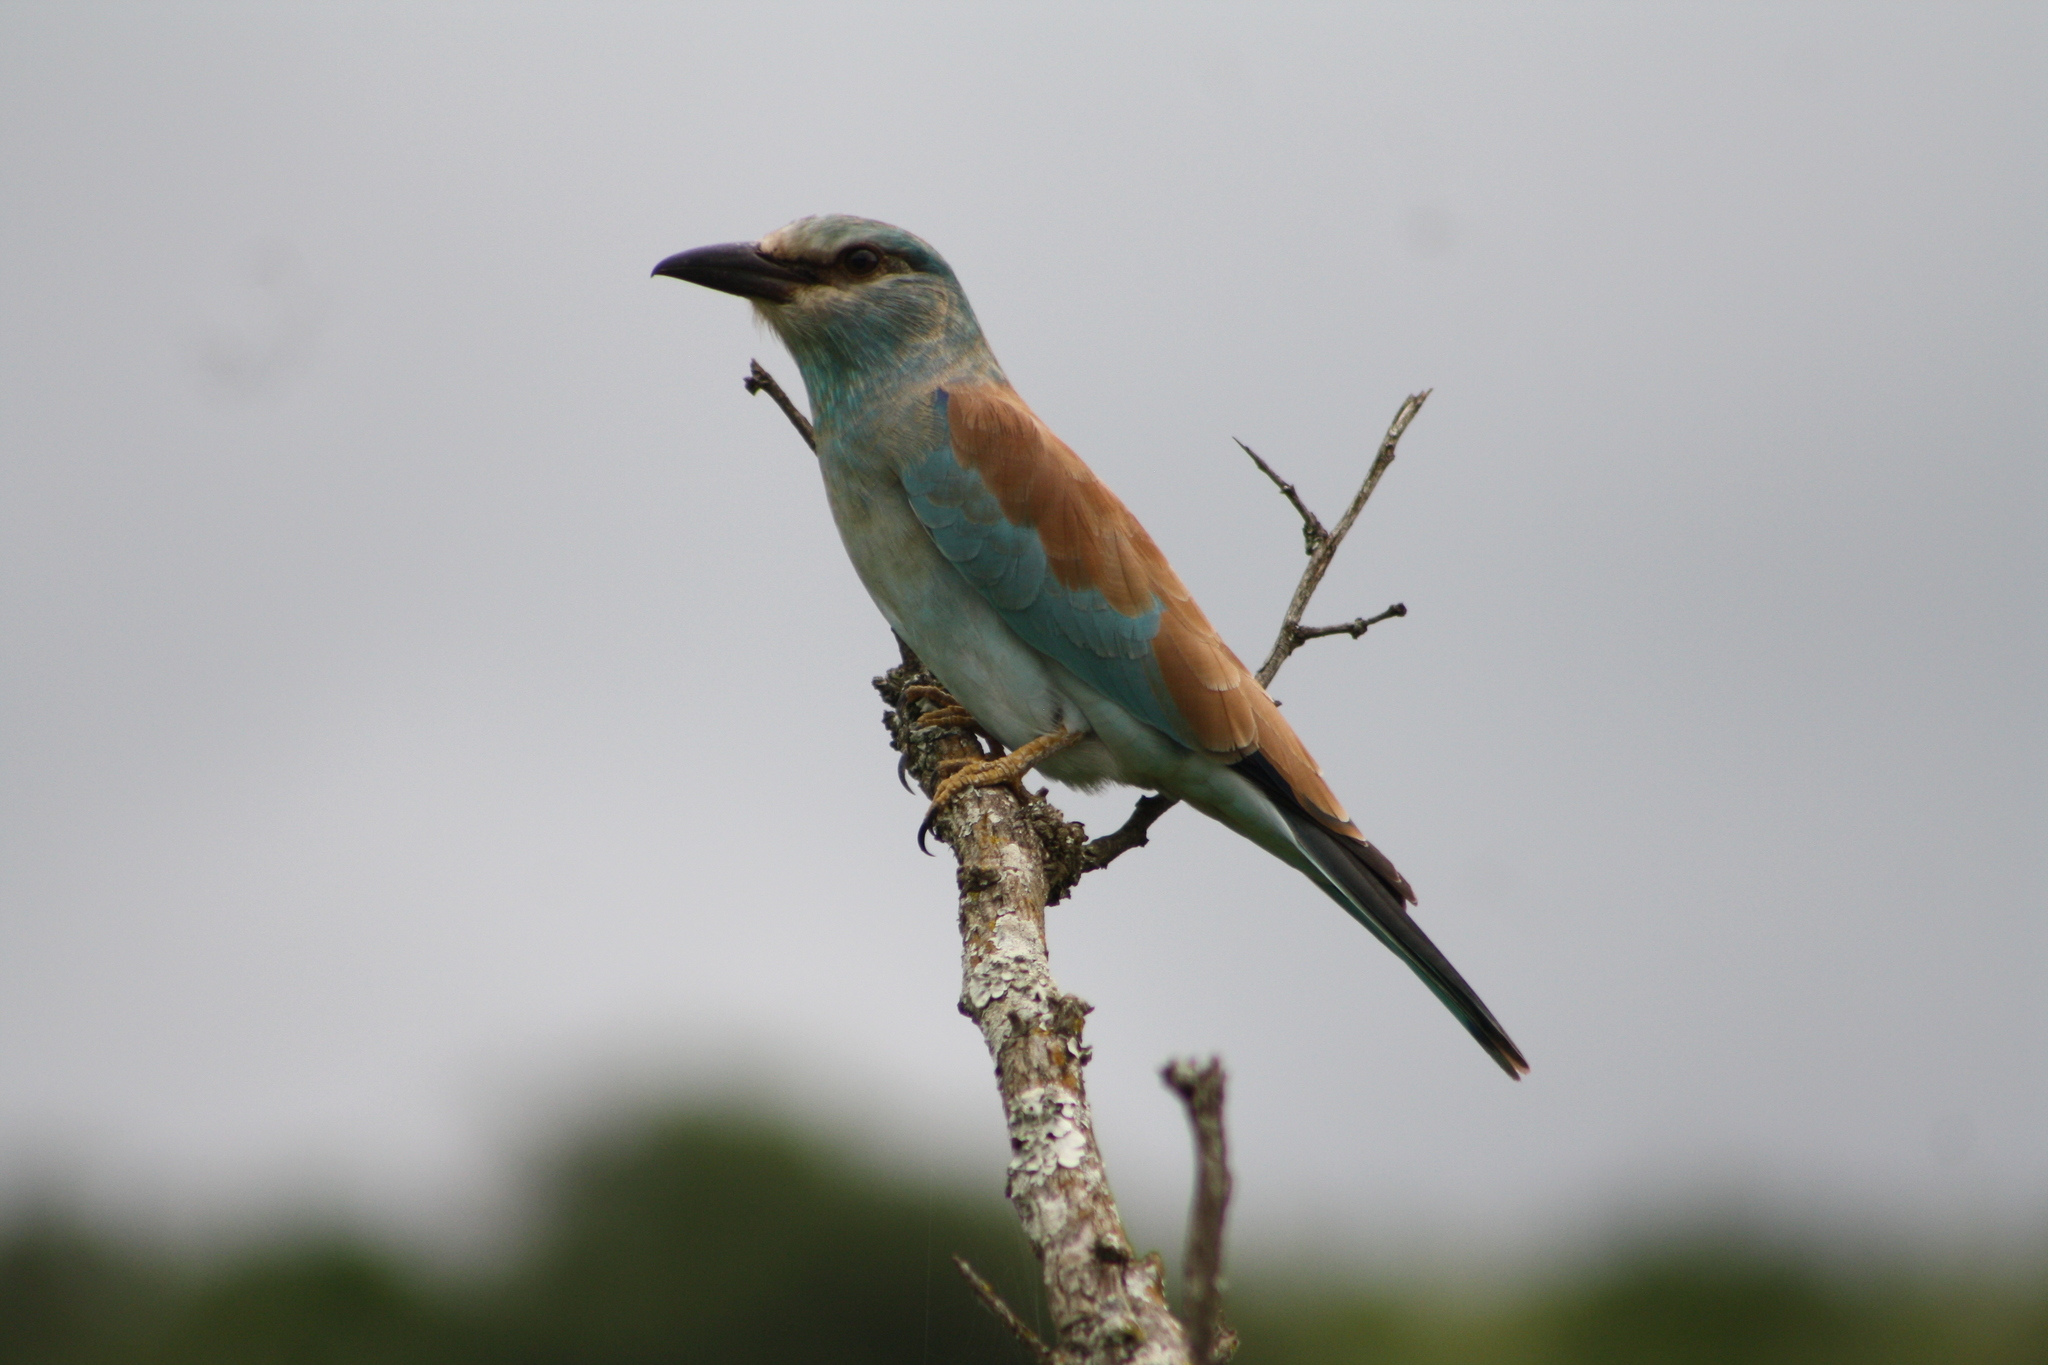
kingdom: Animalia
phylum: Chordata
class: Aves
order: Coraciiformes
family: Coraciidae
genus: Coracias
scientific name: Coracias garrulus
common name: European roller
